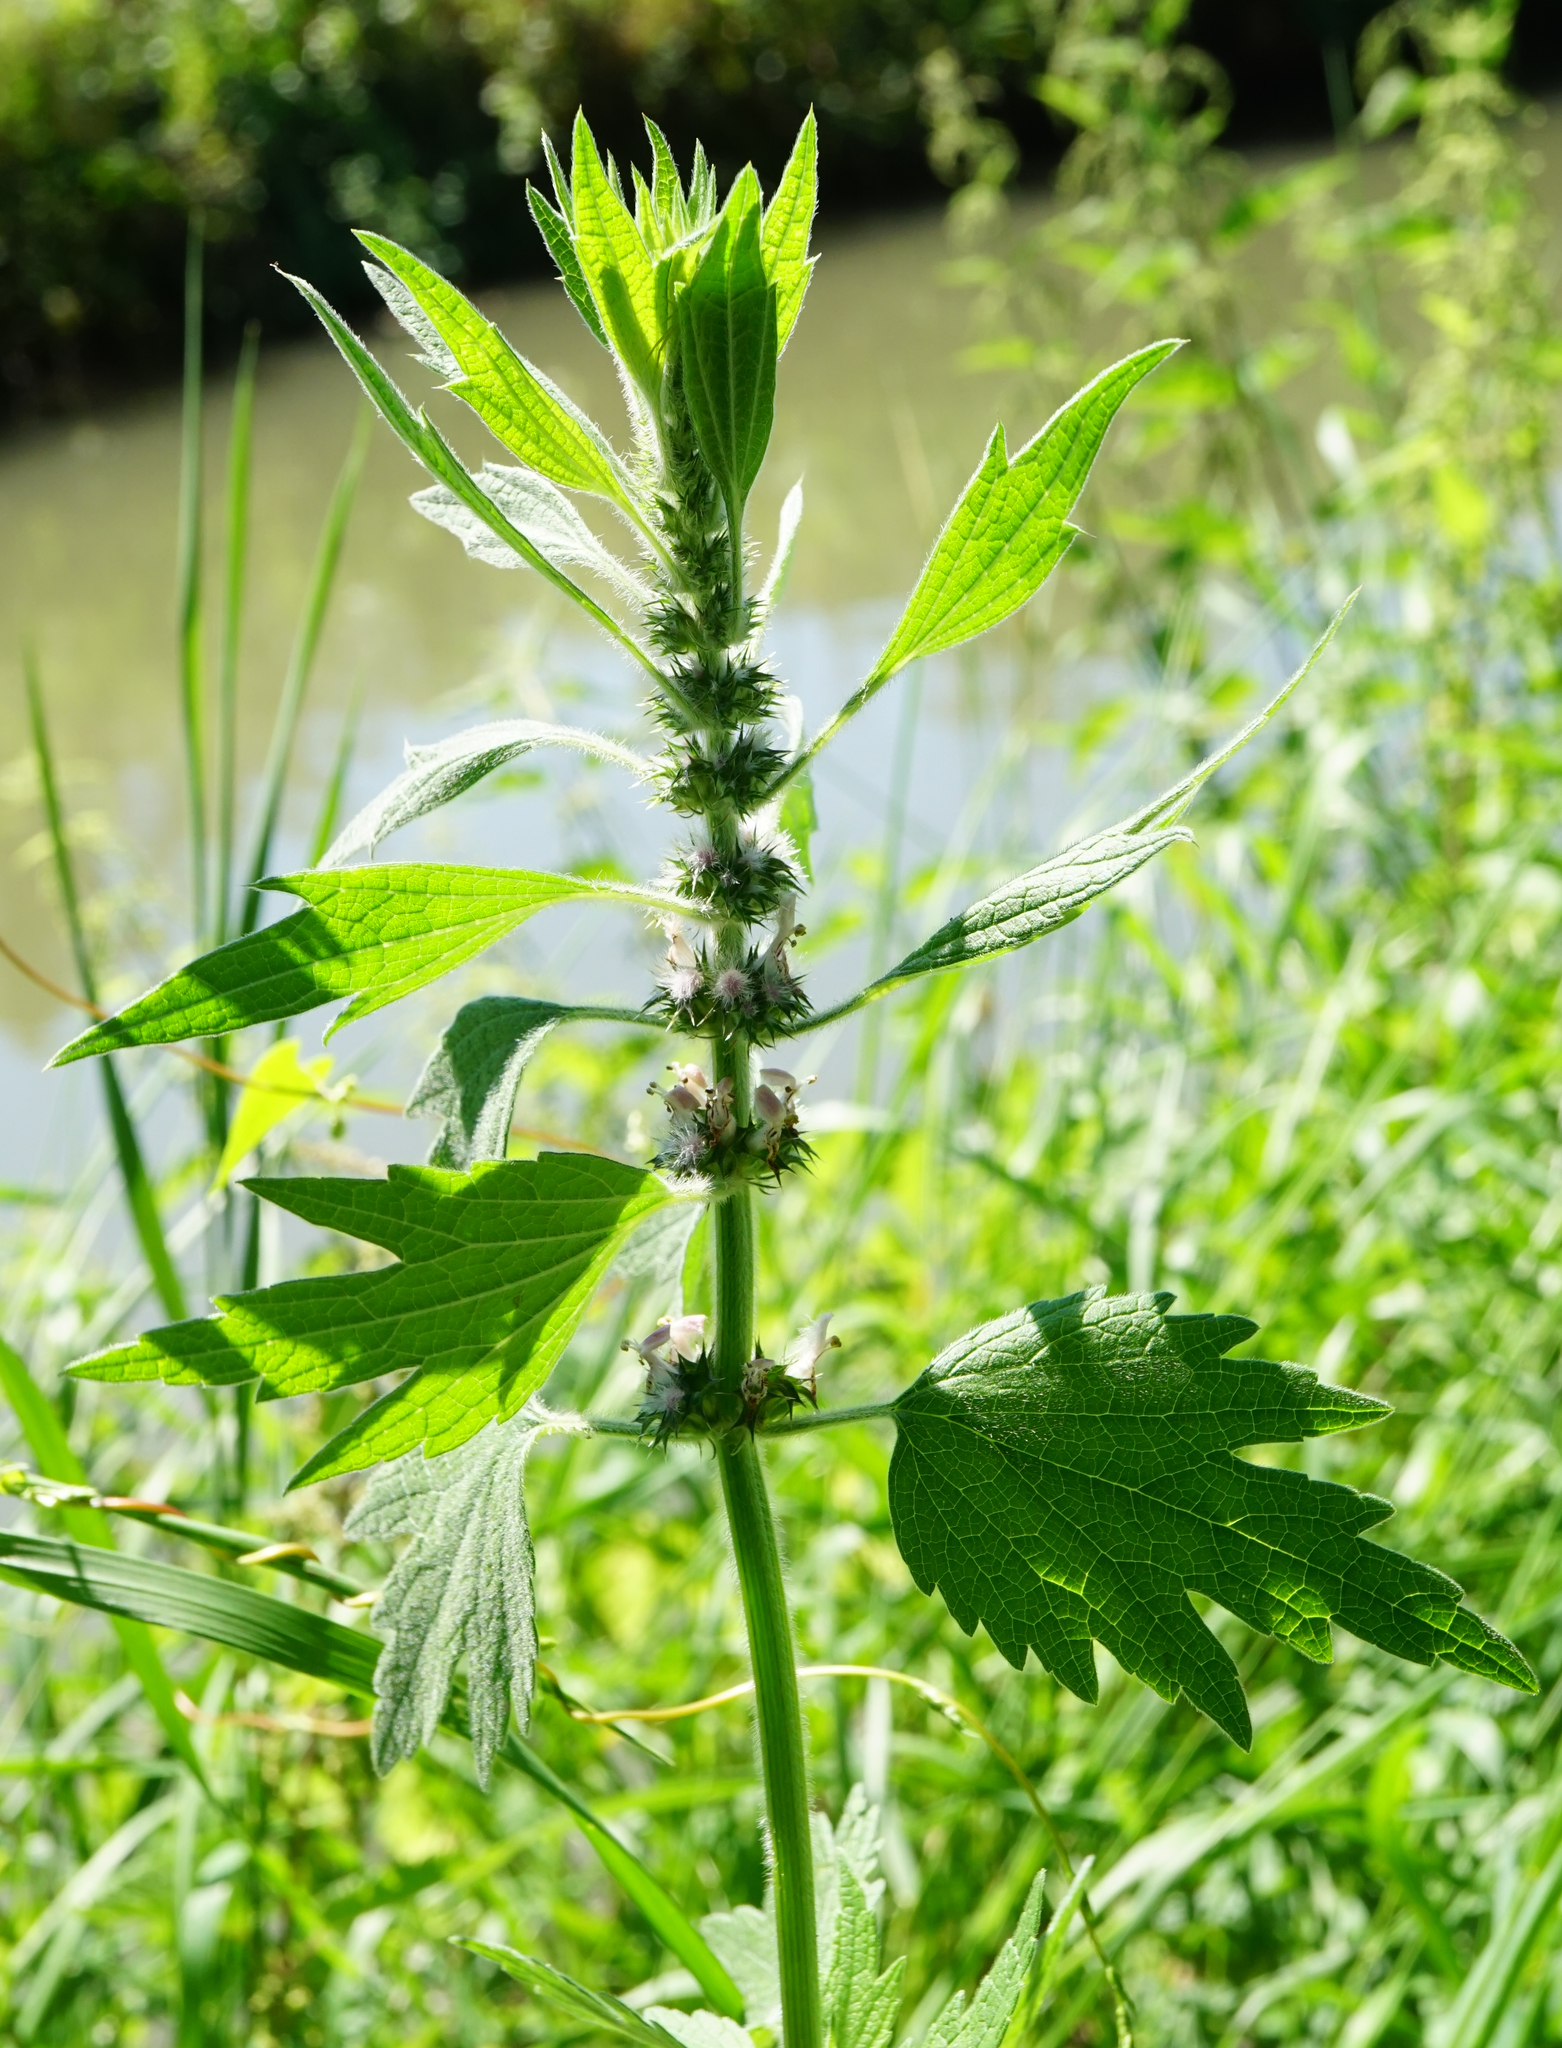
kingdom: Plantae
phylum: Tracheophyta
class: Magnoliopsida
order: Lamiales
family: Lamiaceae
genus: Leonurus
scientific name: Leonurus quinquelobatus
